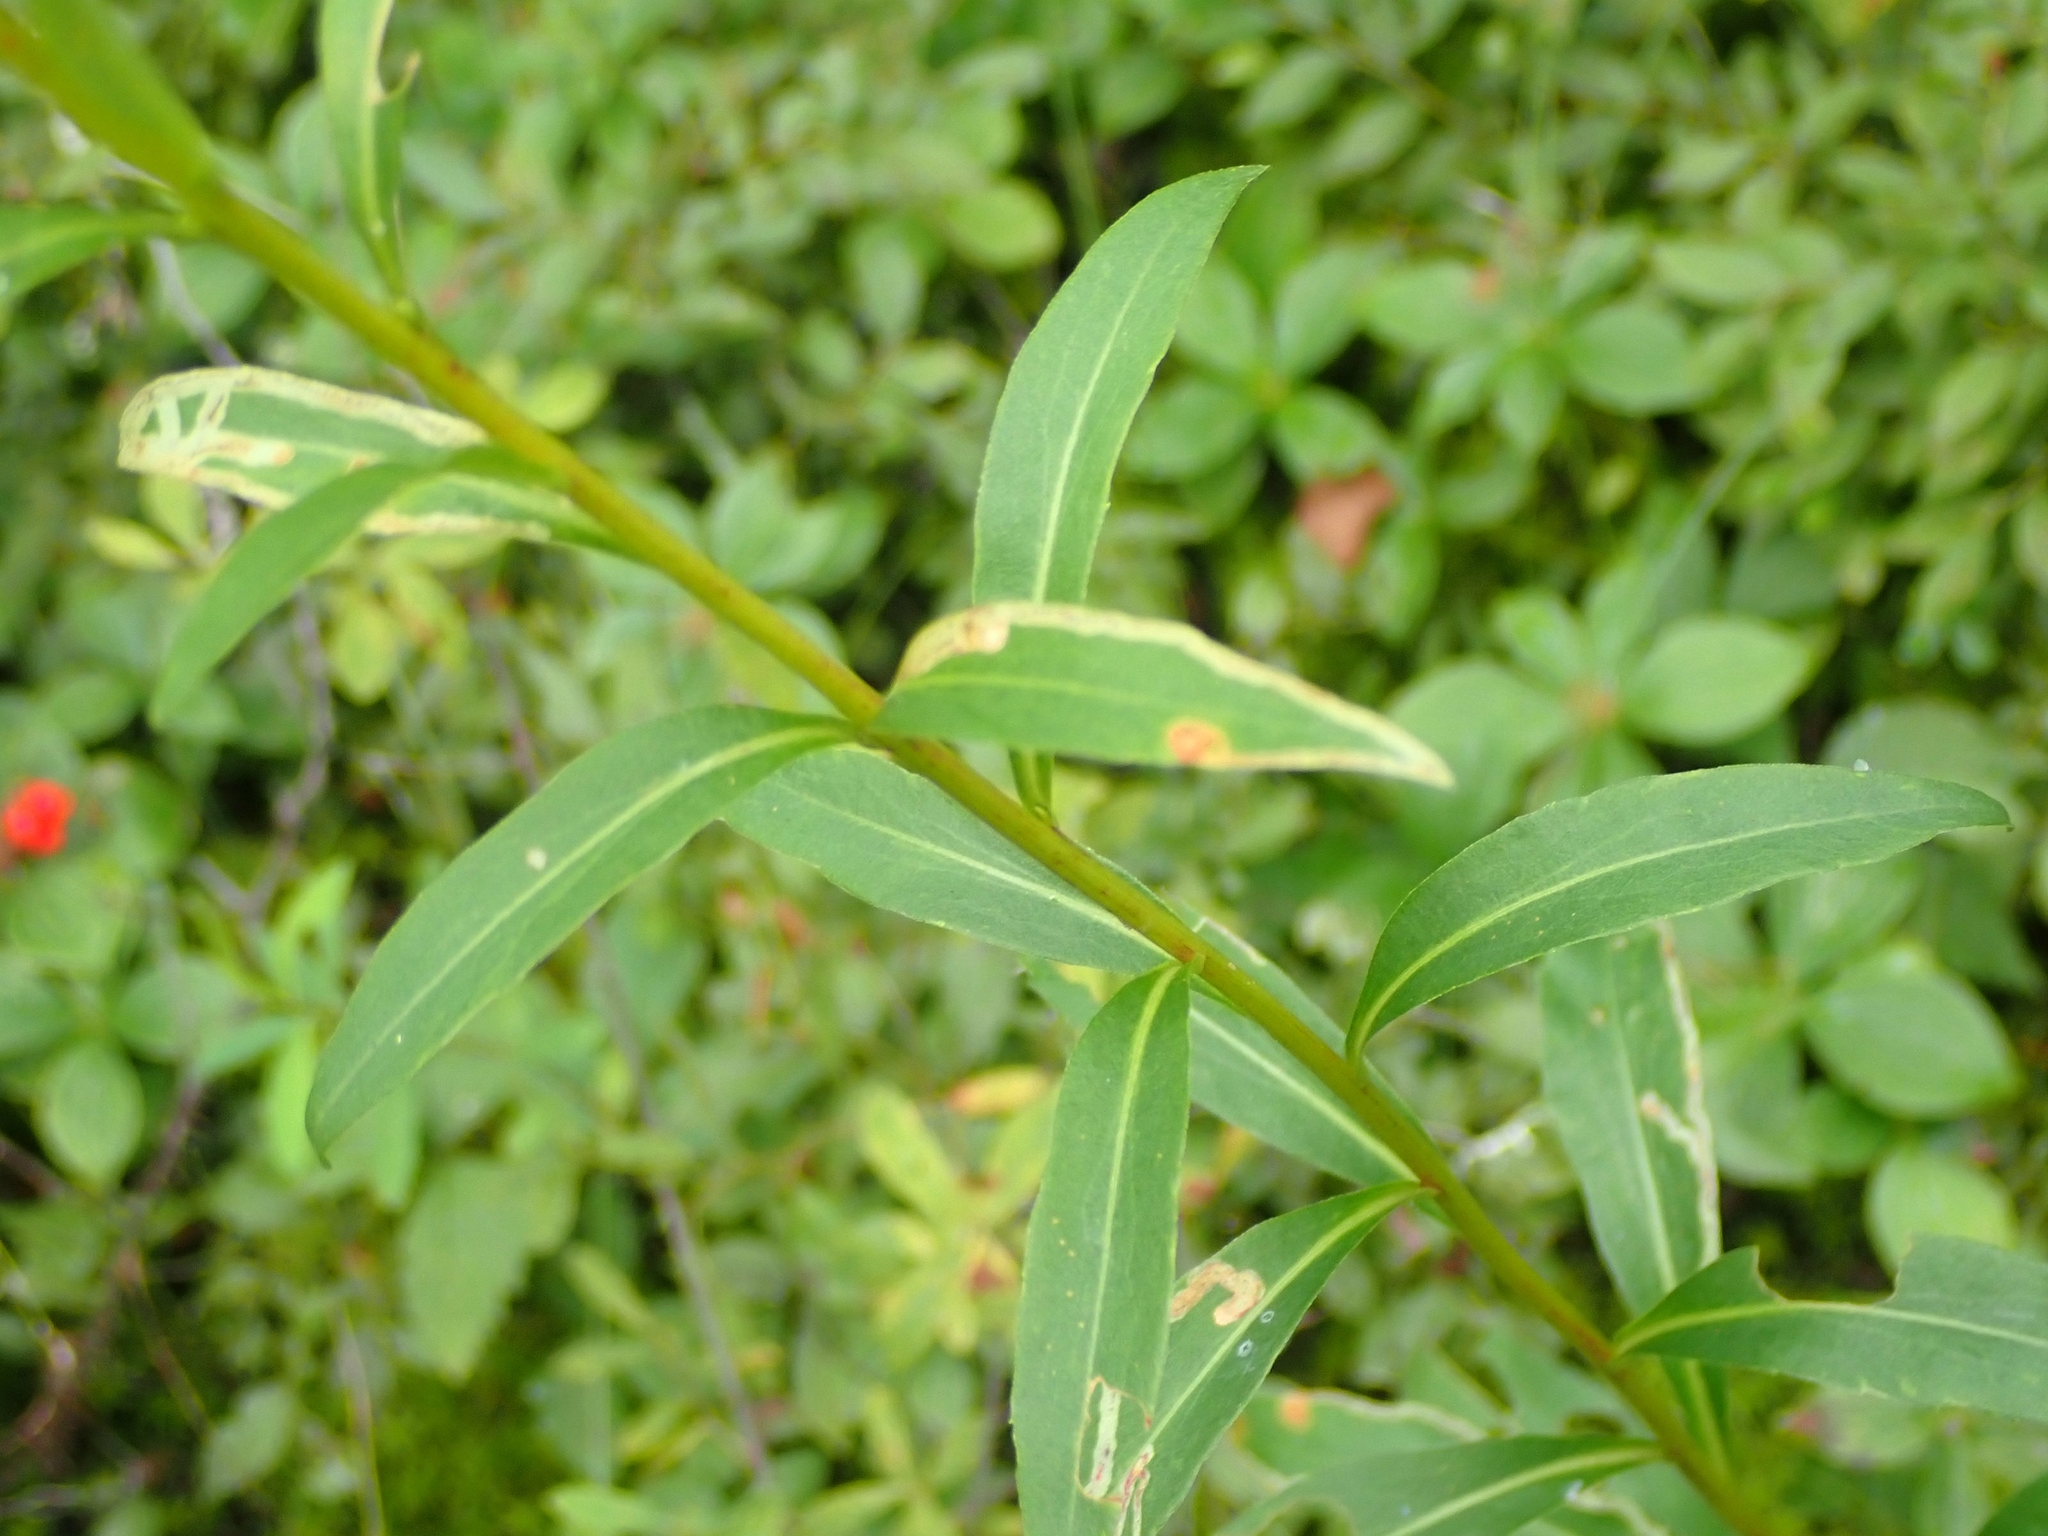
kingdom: Plantae
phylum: Tracheophyta
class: Magnoliopsida
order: Asterales
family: Asteraceae
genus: Solidago
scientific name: Solidago uliginosa
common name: Bog goldenrod
